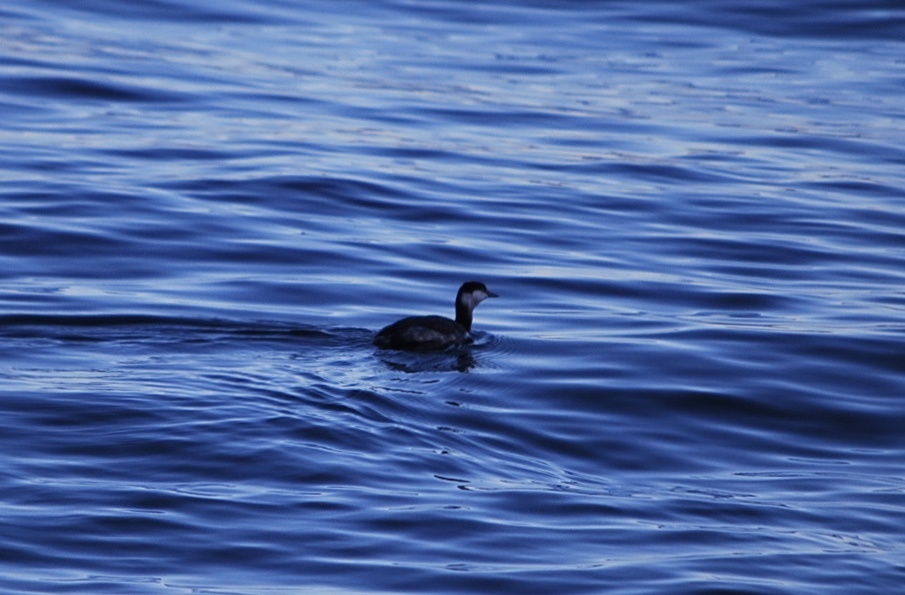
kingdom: Animalia
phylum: Chordata
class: Aves
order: Podicipediformes
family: Podicipedidae
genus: Podiceps
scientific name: Podiceps auritus
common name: Horned grebe
